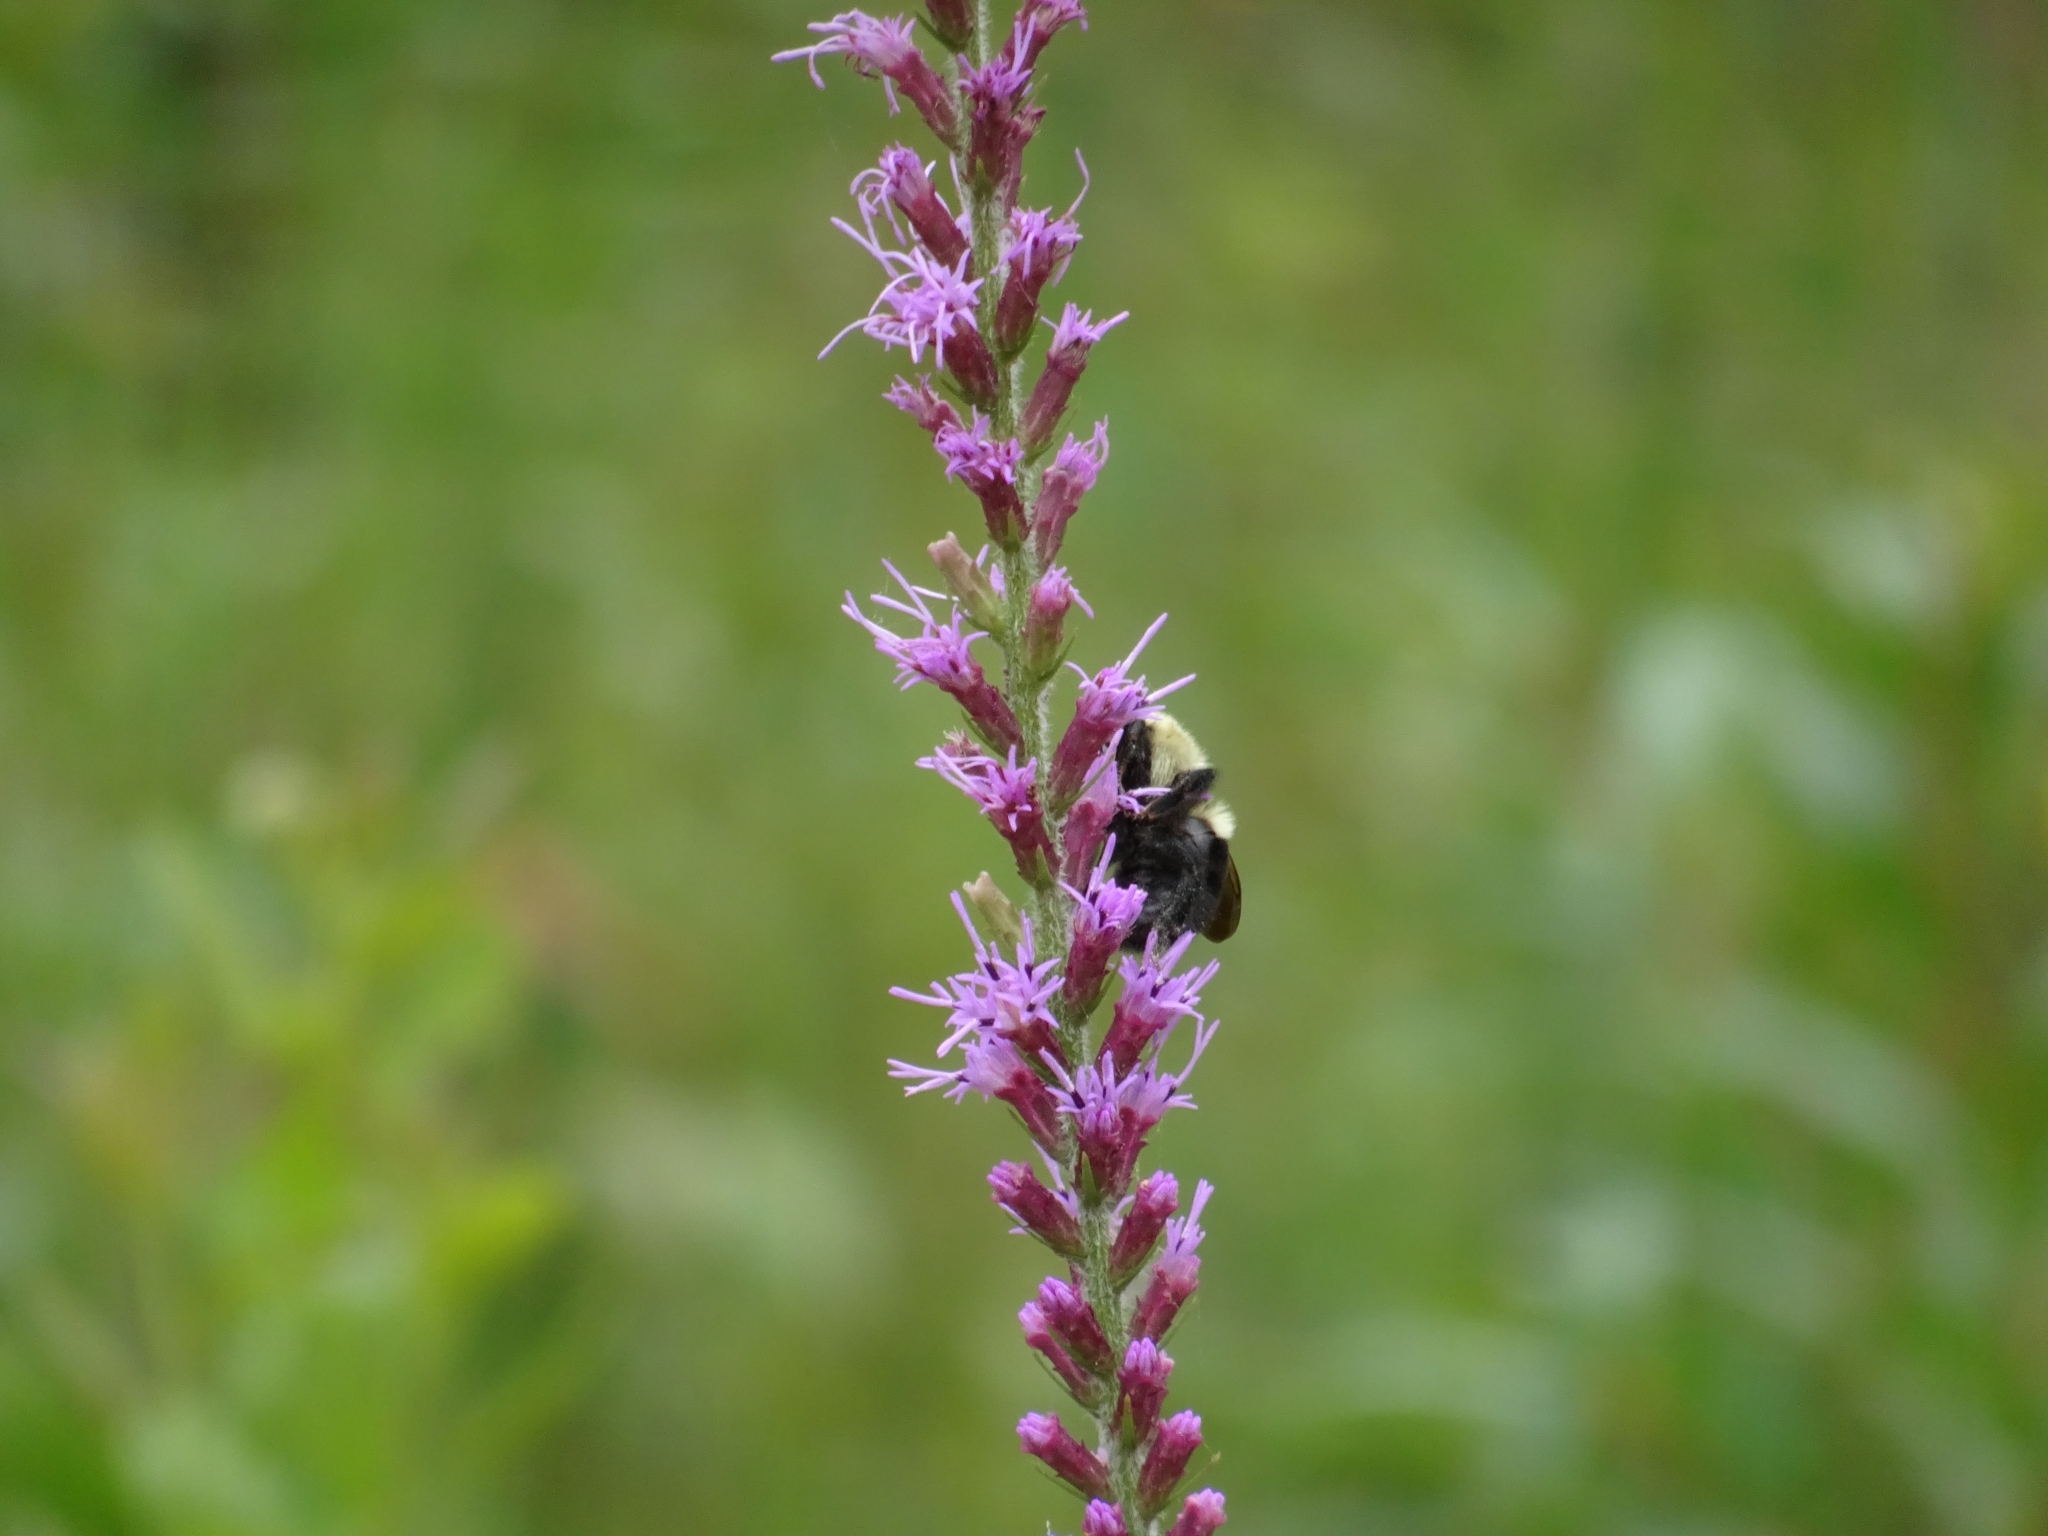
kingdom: Animalia
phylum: Arthropoda
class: Insecta
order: Hymenoptera
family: Apidae
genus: Bombus
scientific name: Bombus bimaculatus
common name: Two-spotted bumble bee
